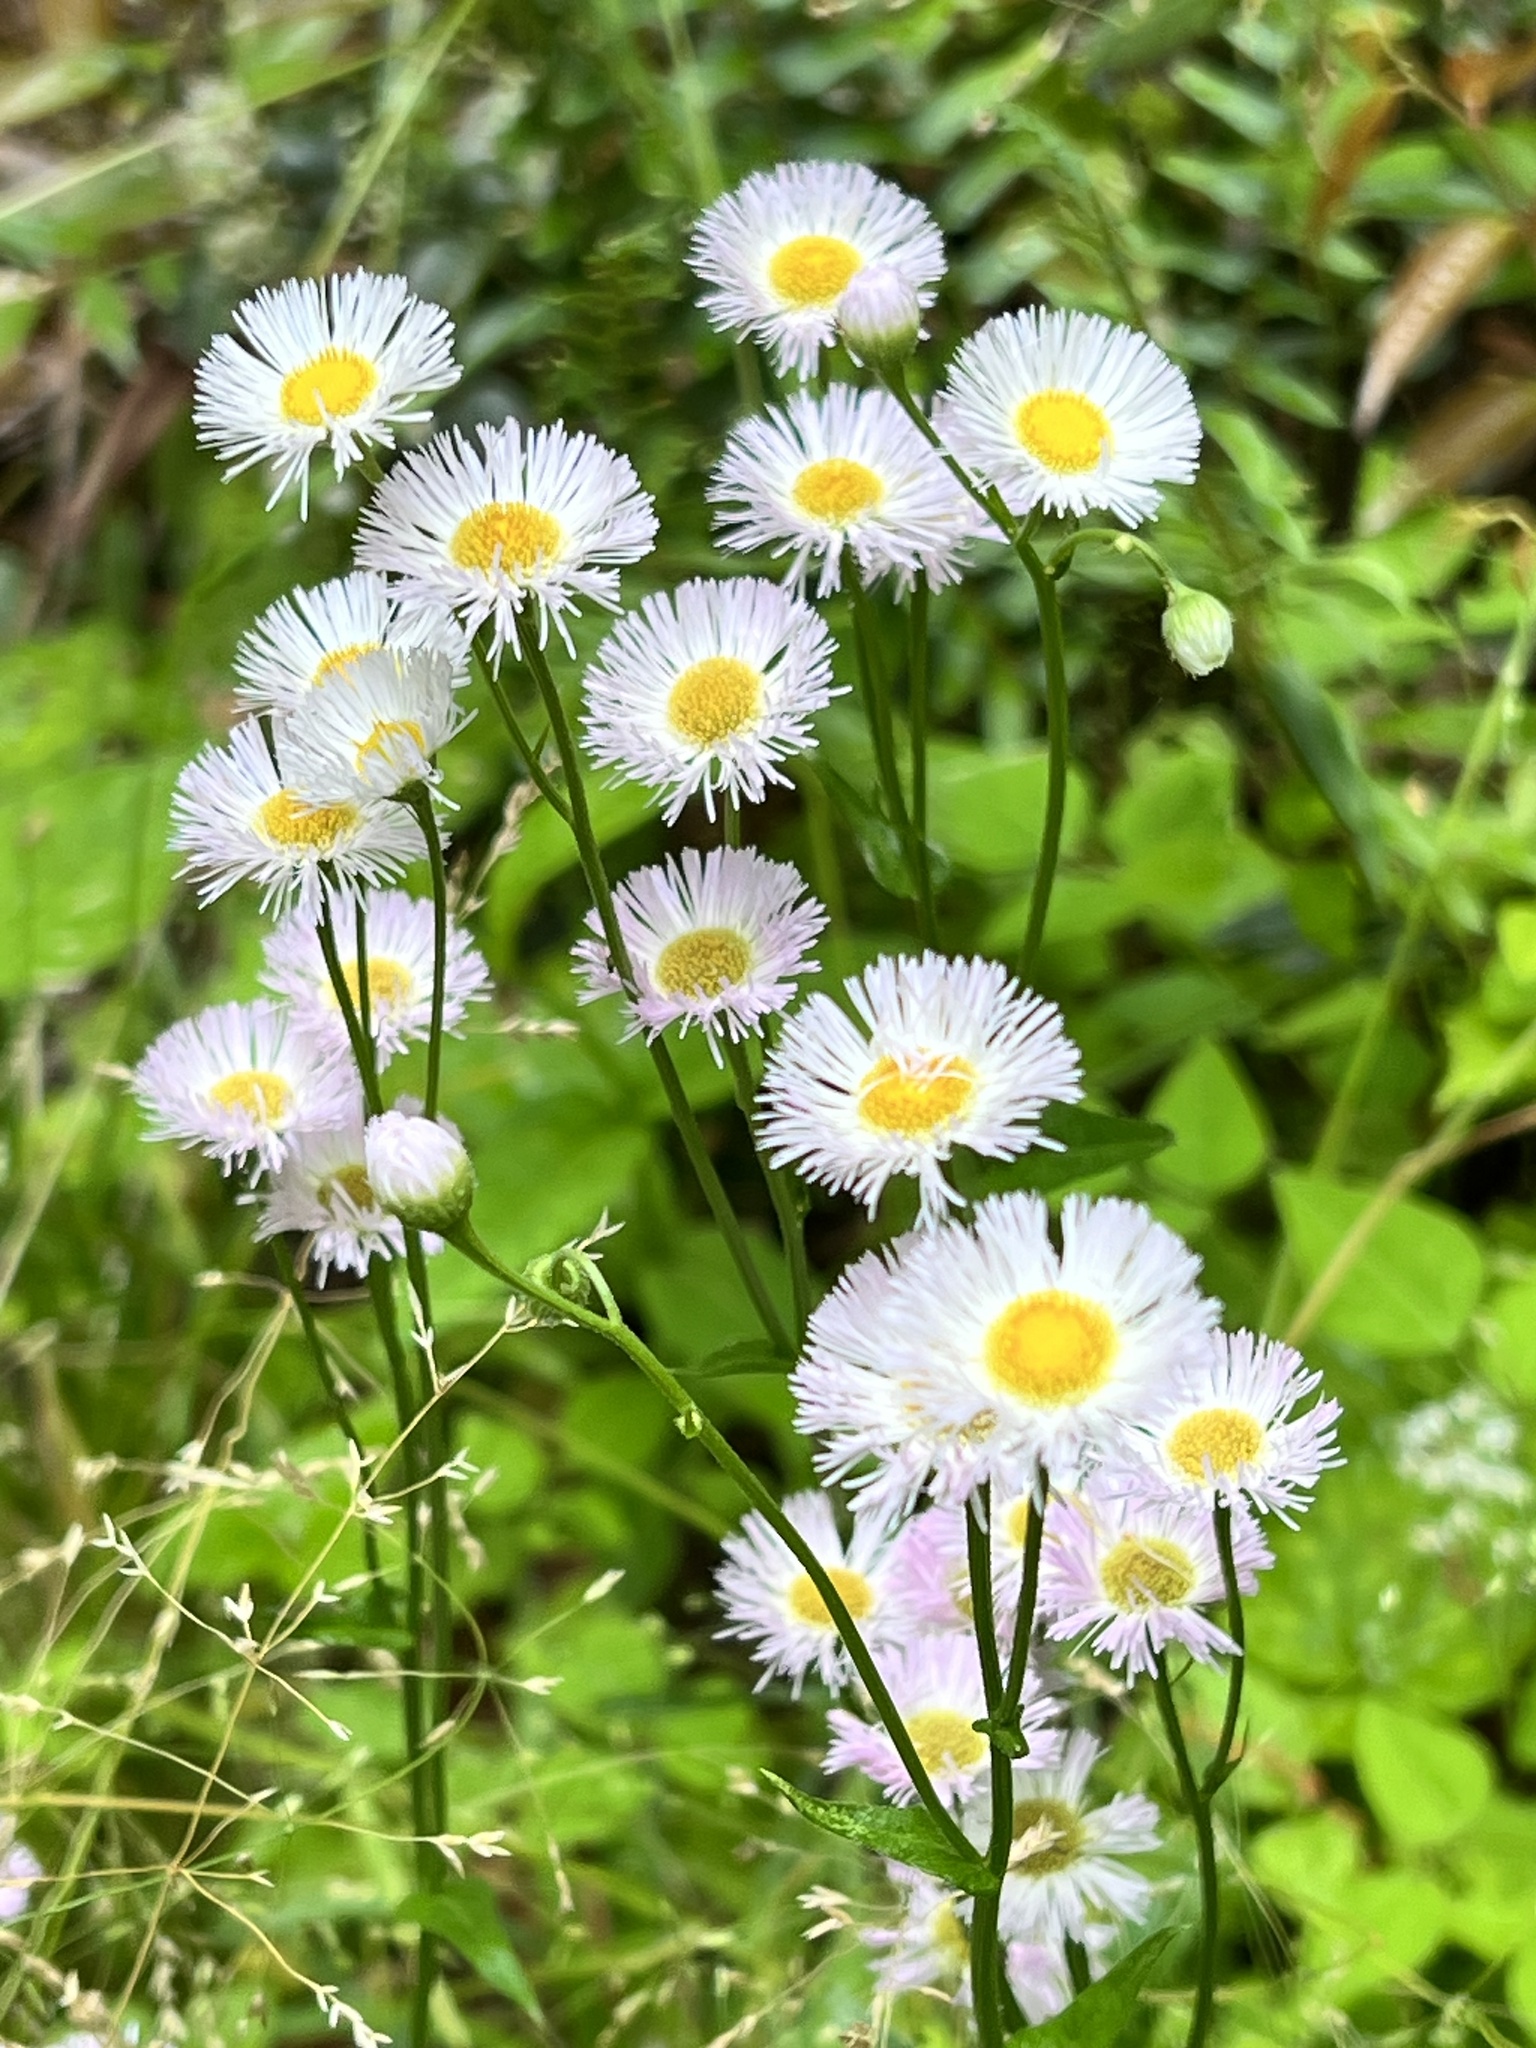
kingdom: Plantae
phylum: Tracheophyta
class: Magnoliopsida
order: Asterales
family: Asteraceae
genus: Erigeron
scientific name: Erigeron philadelphicus
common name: Robin's-plantain
